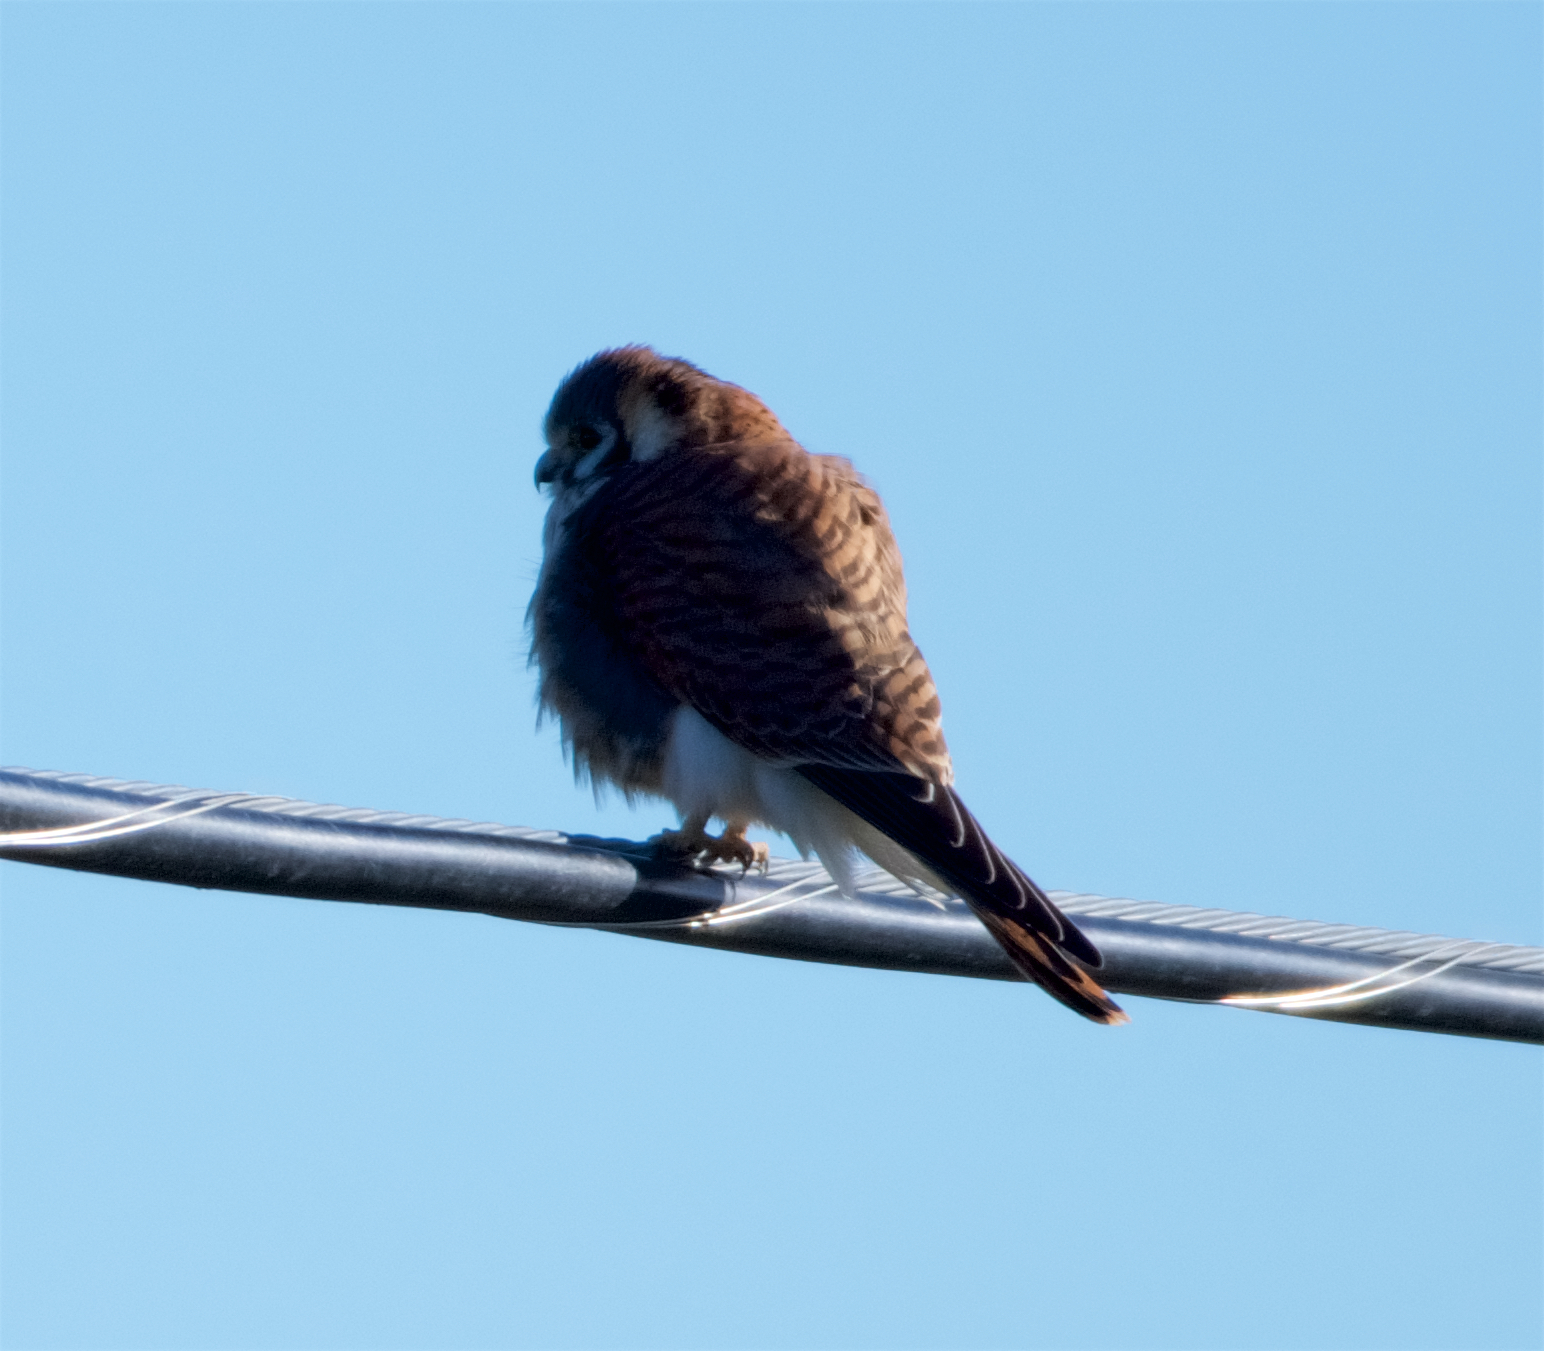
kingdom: Animalia
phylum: Chordata
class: Aves
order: Falconiformes
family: Falconidae
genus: Falco
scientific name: Falco sparverius
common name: American kestrel
